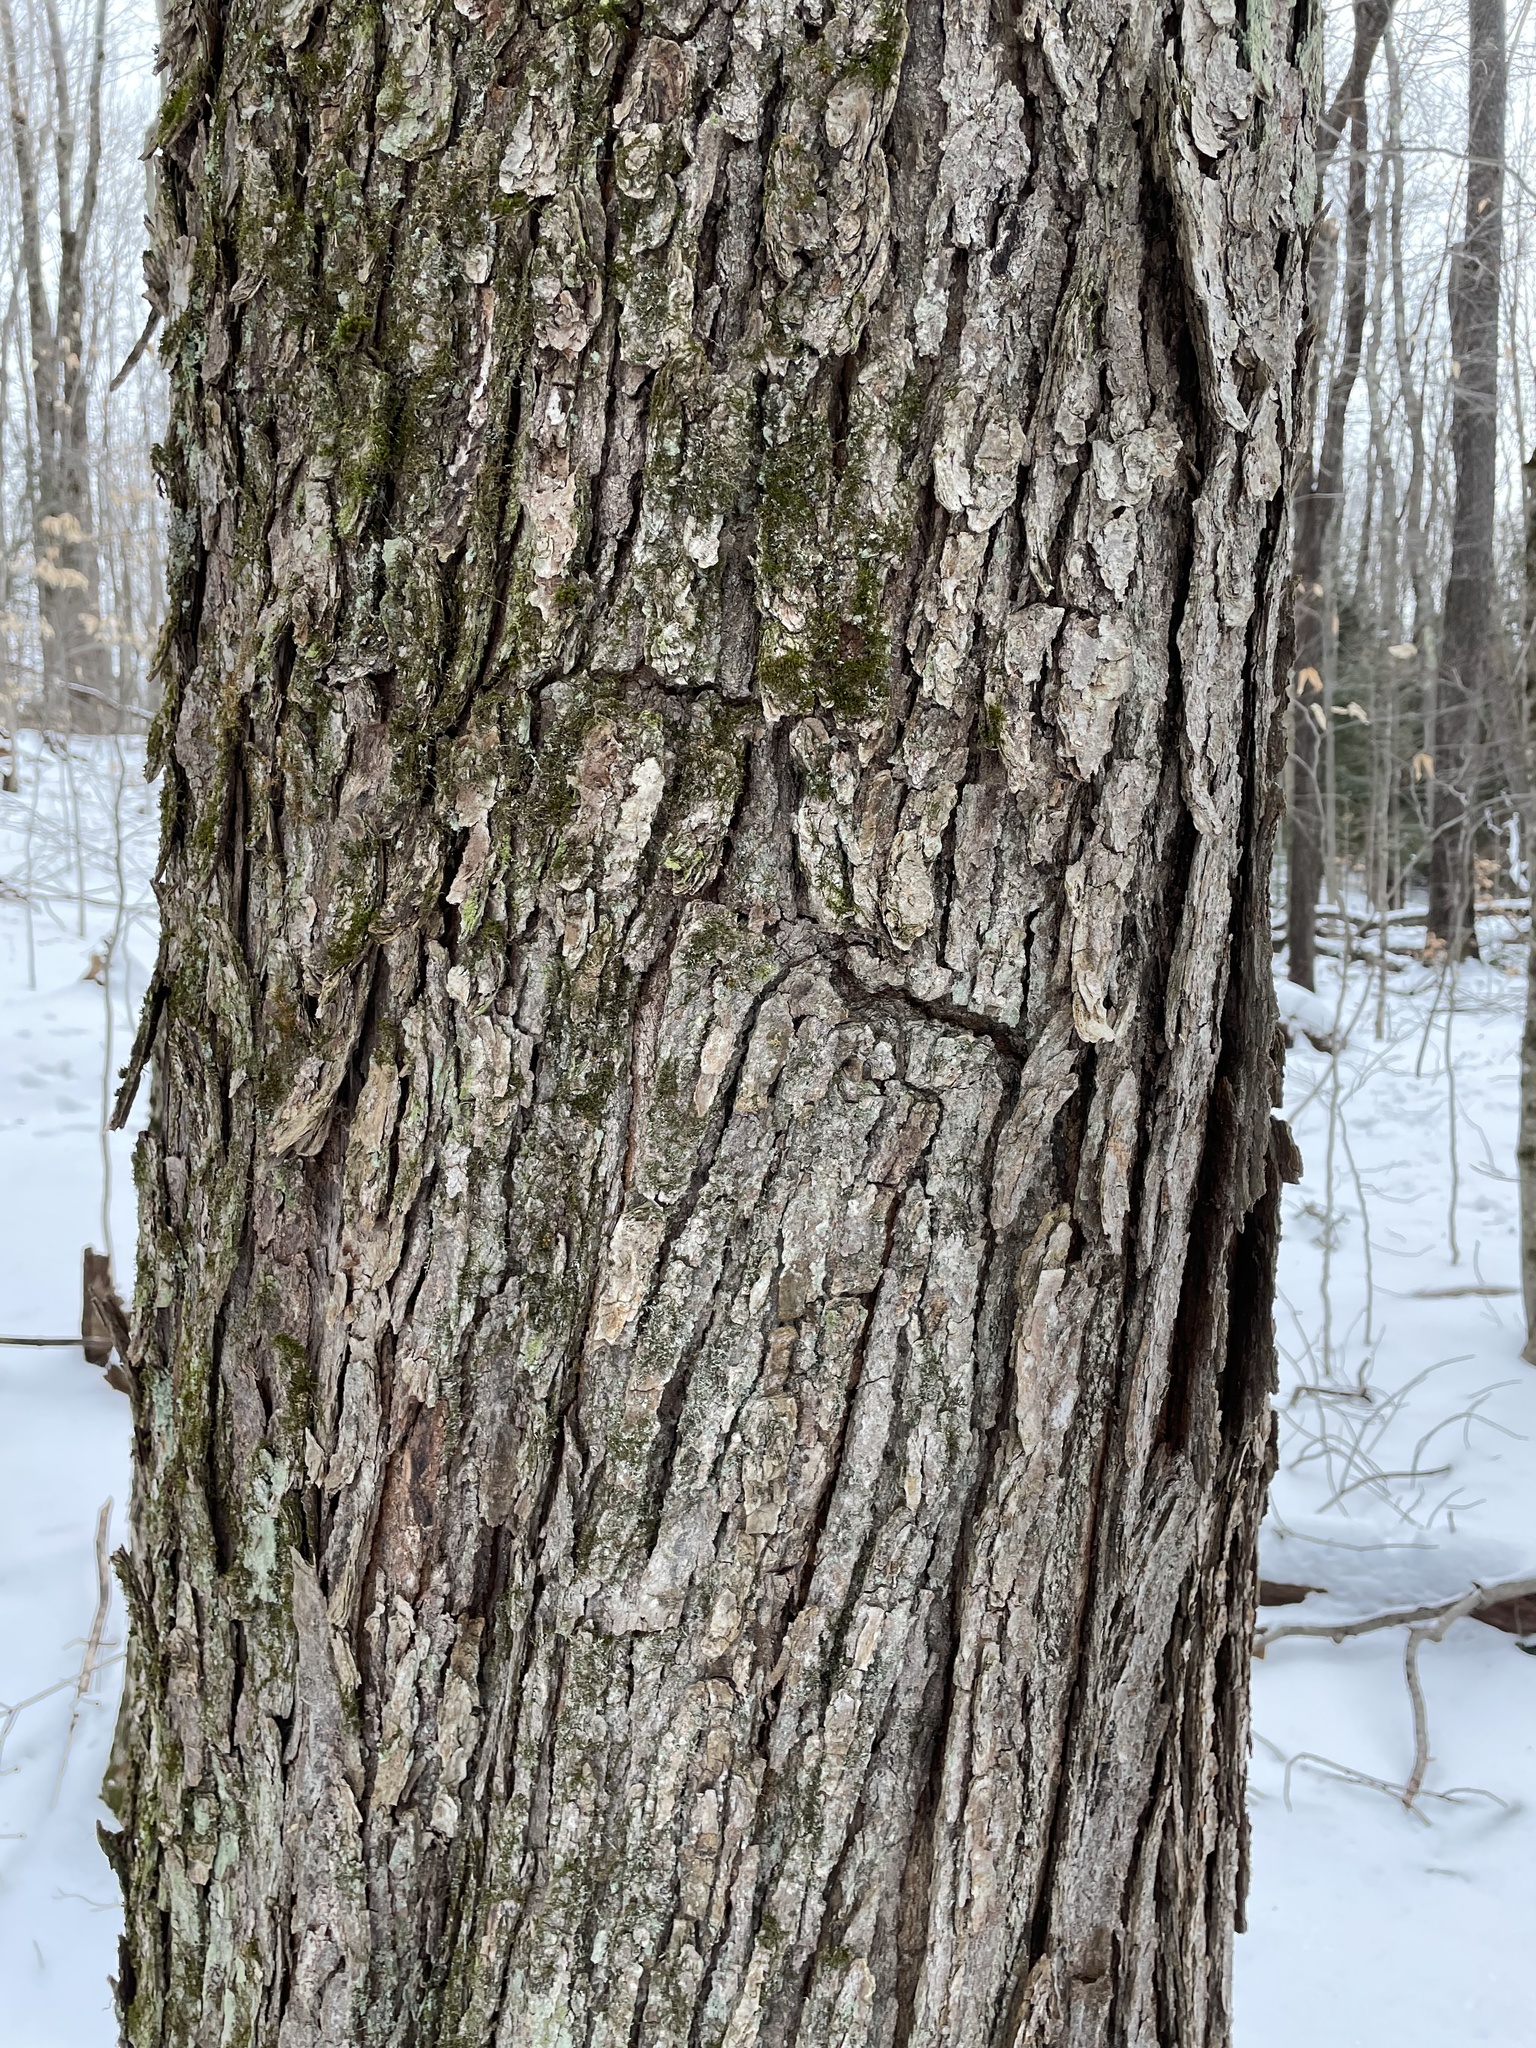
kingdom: Plantae
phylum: Tracheophyta
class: Magnoliopsida
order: Sapindales
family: Sapindaceae
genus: Acer
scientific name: Acer saccharum
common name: Sugar maple
